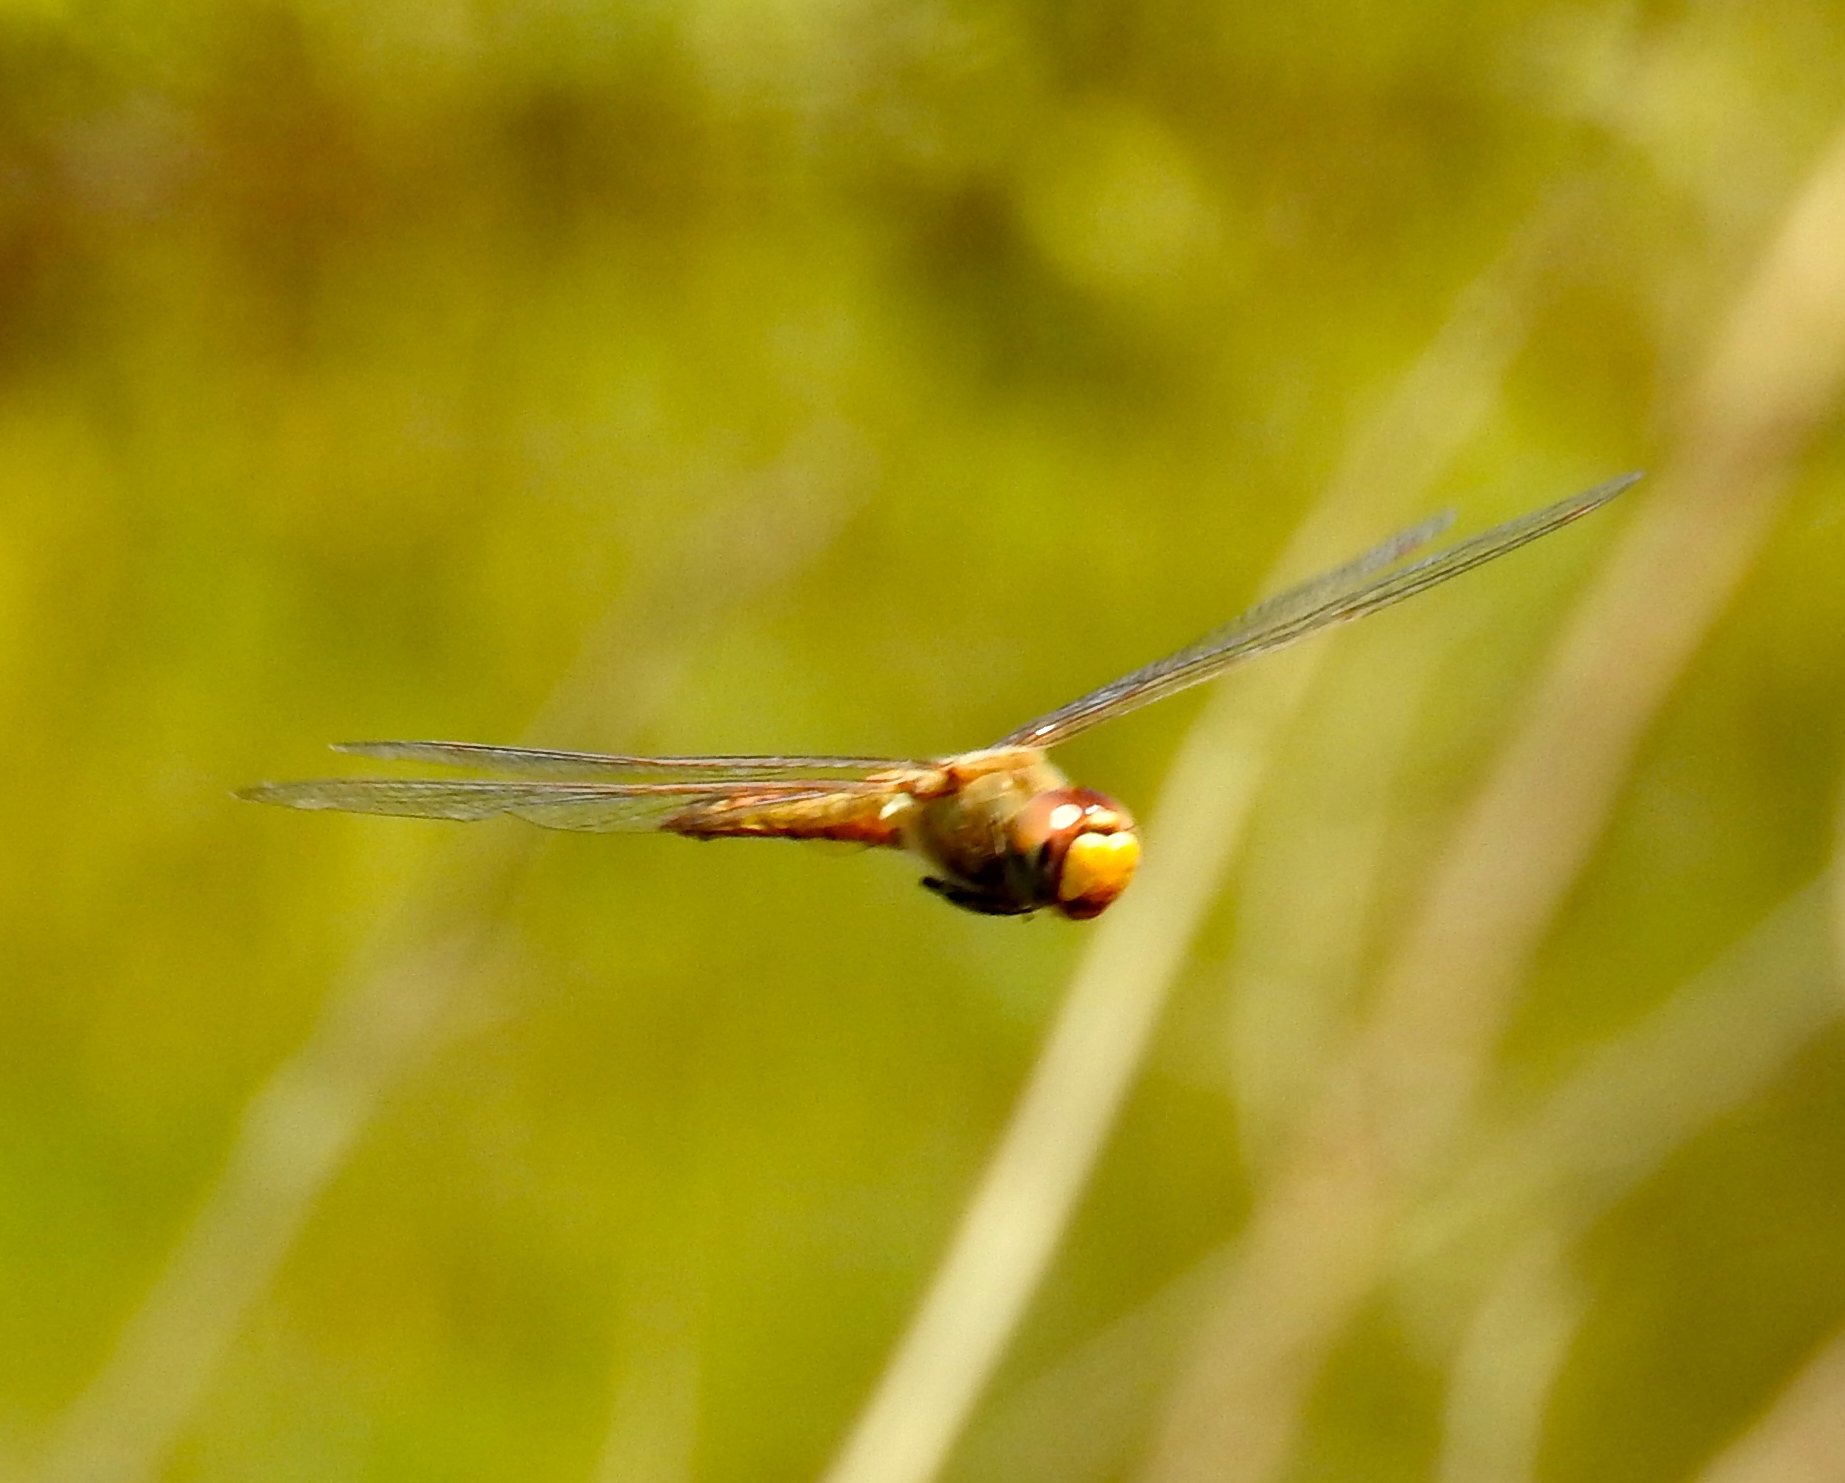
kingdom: Animalia
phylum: Arthropoda
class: Insecta
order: Odonata
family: Libellulidae
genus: Pantala
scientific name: Pantala flavescens
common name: Wandering glider
